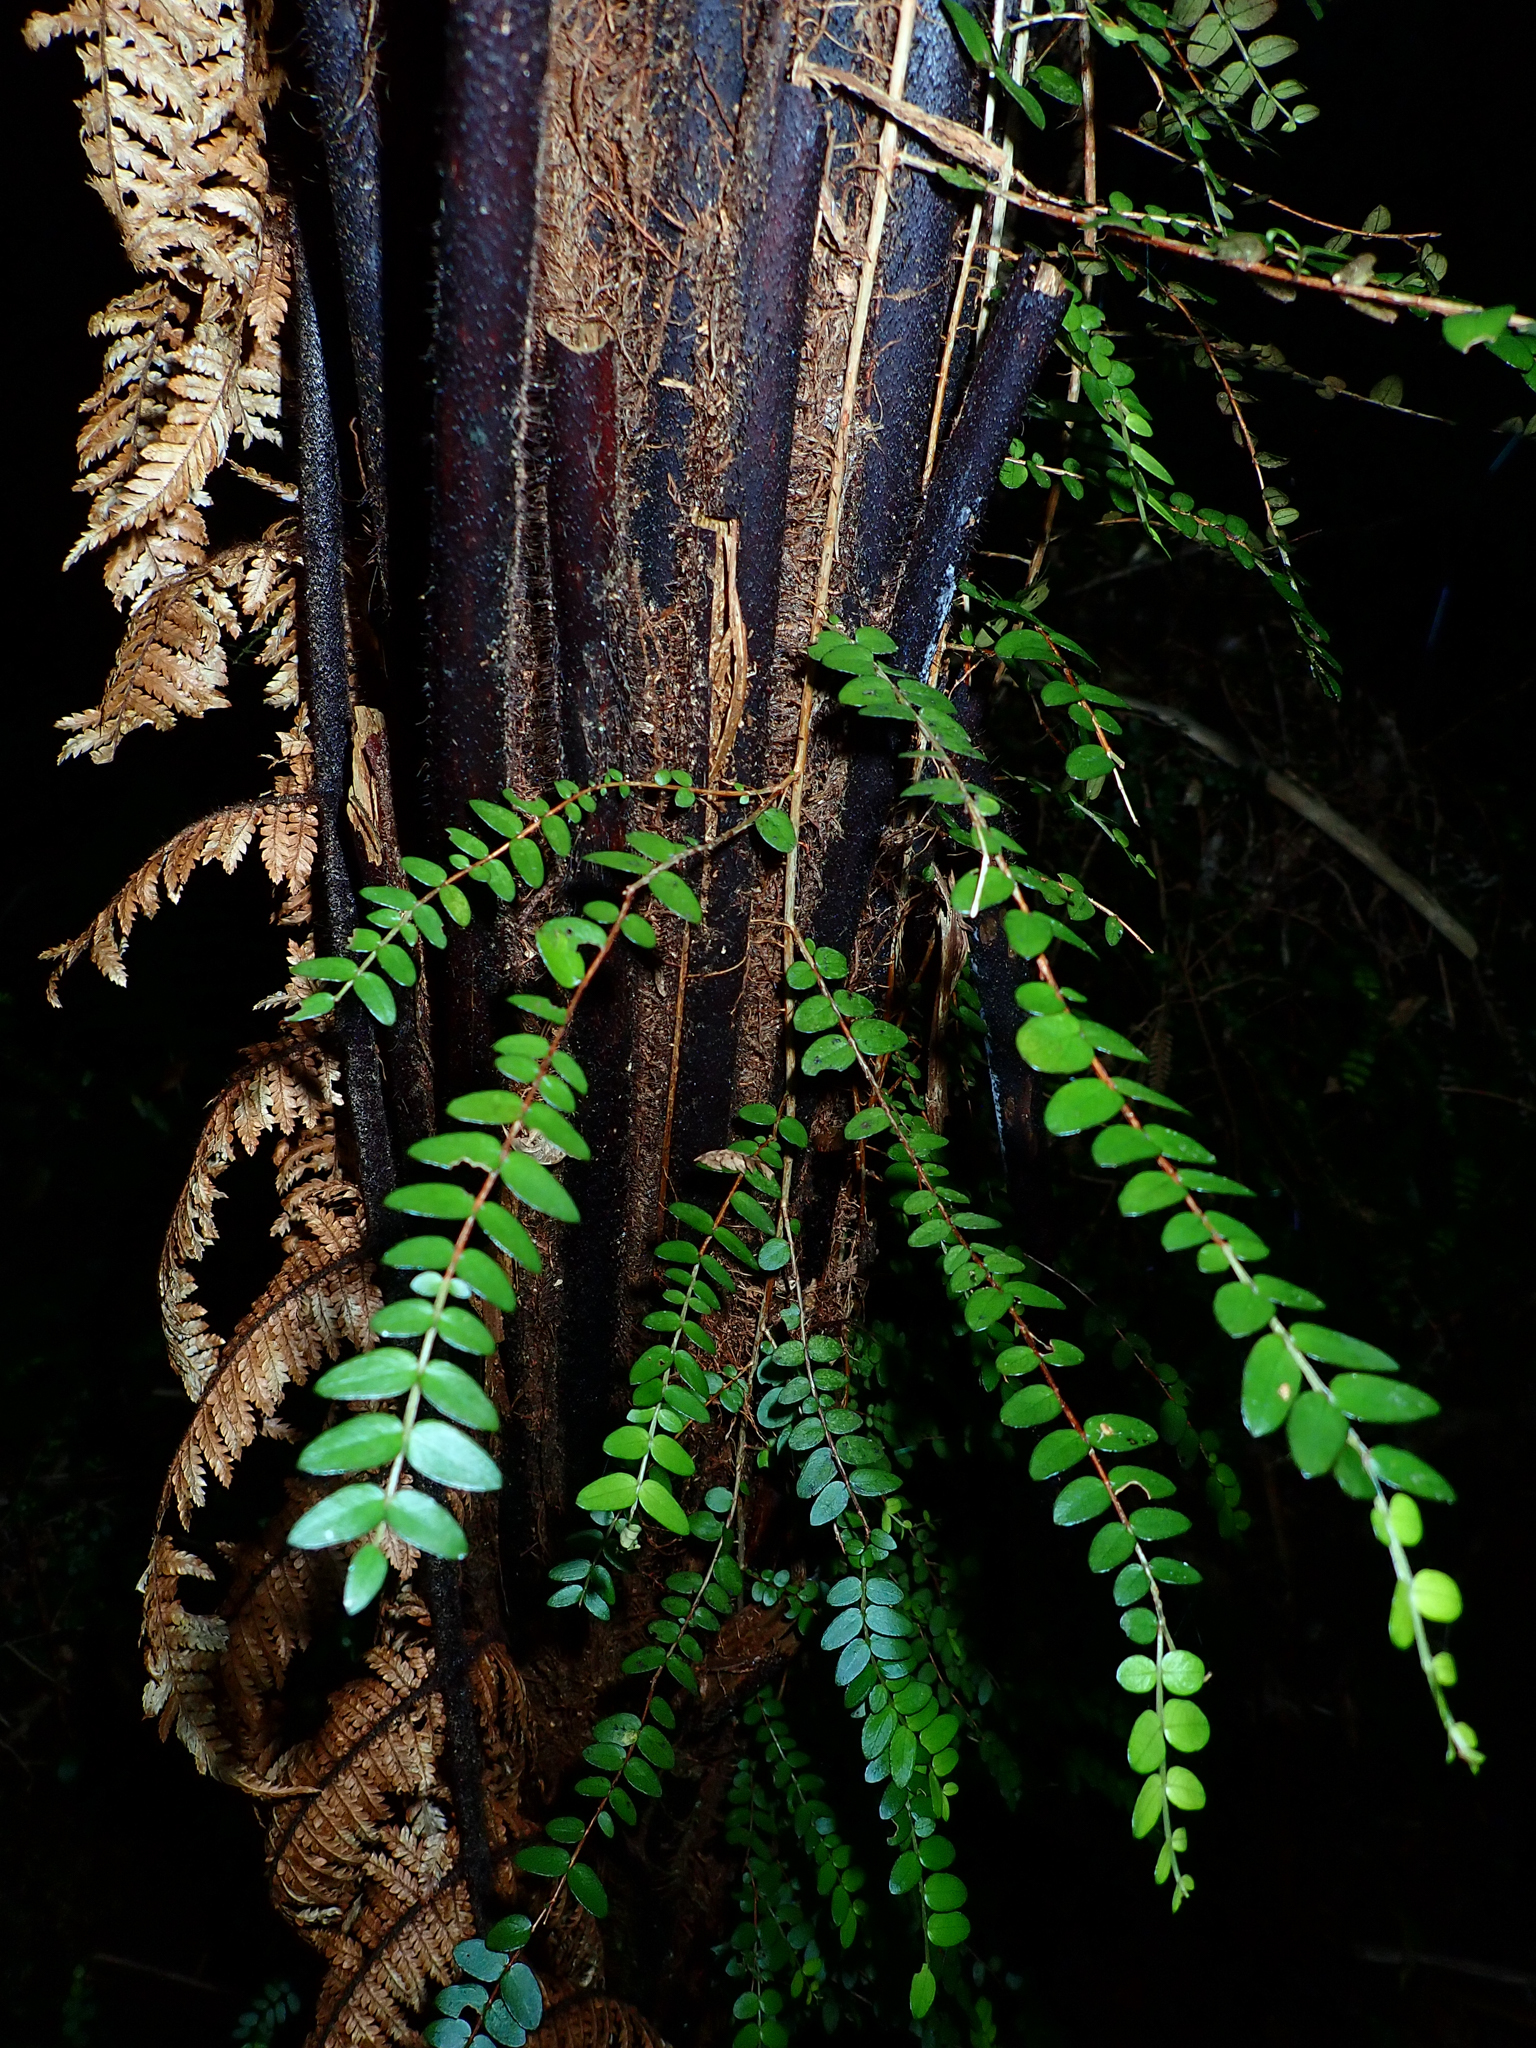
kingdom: Plantae
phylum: Tracheophyta
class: Magnoliopsida
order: Myrtales
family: Myrtaceae
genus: Metrosideros
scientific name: Metrosideros diffusa
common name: Small ratavine
